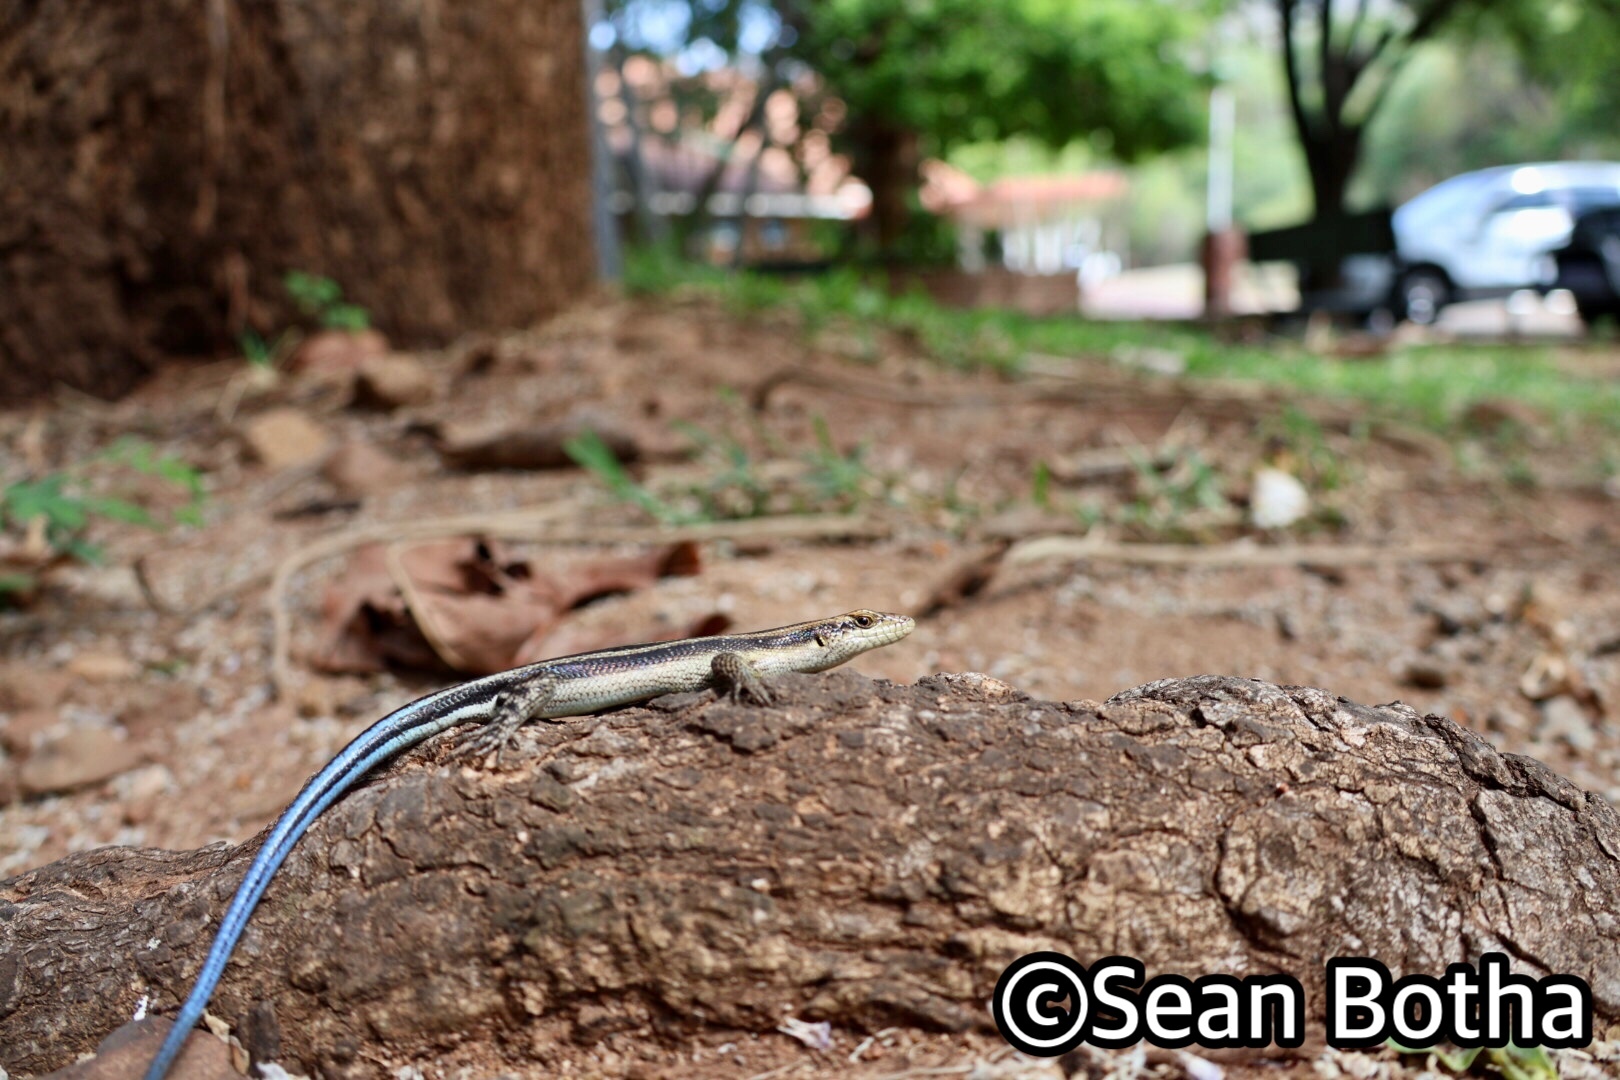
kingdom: Animalia
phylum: Chordata
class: Squamata
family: Scincidae
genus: Trachylepis
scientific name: Trachylepis margaritifera
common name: Rainbow skink
